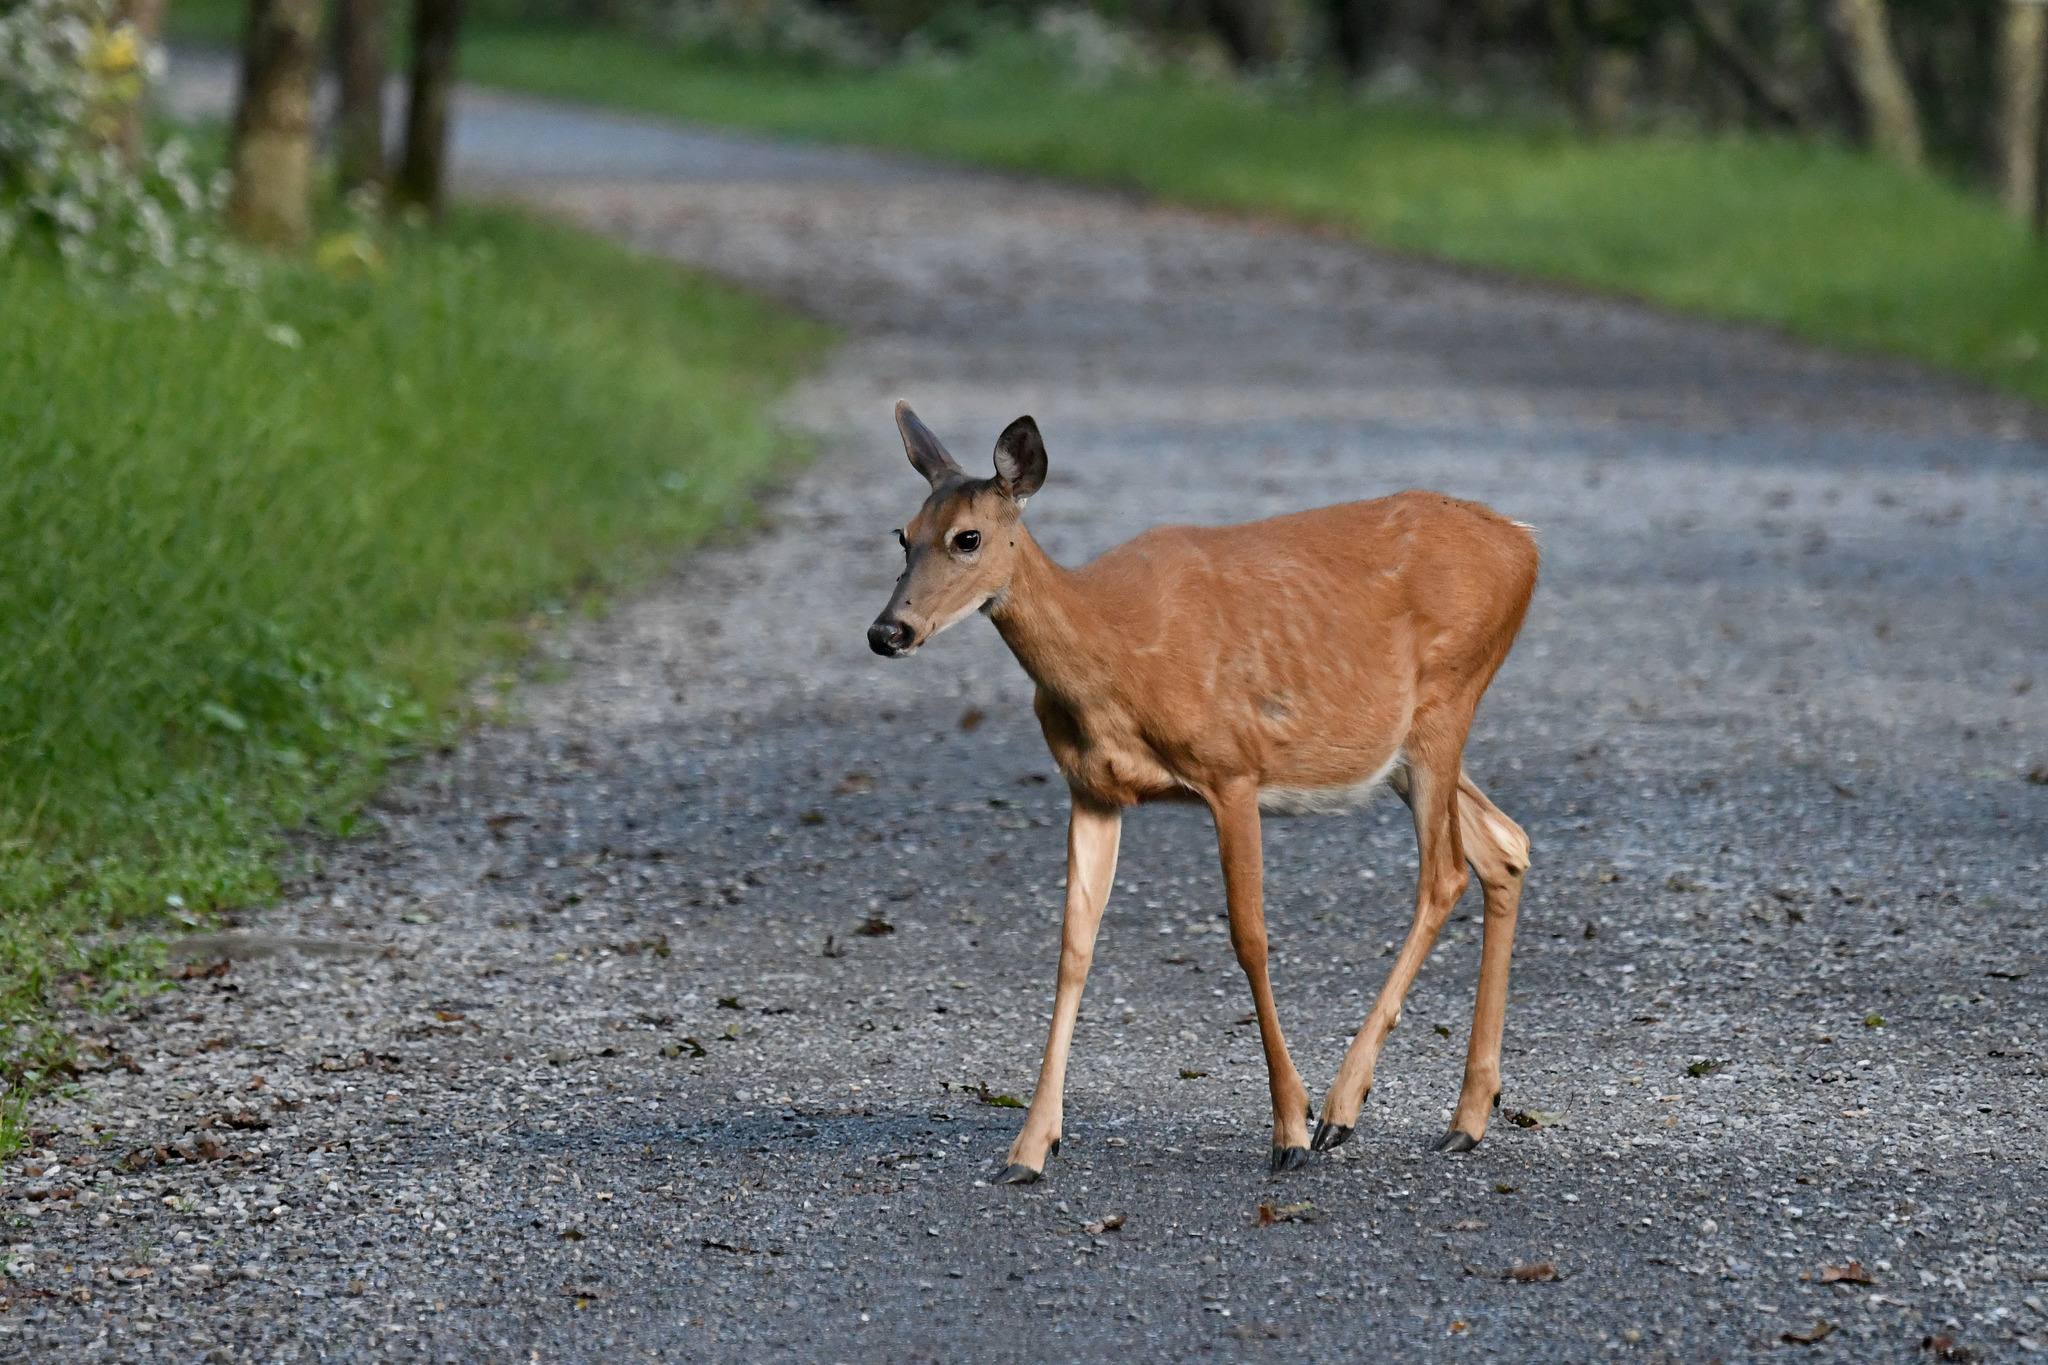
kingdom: Animalia
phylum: Chordata
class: Mammalia
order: Artiodactyla
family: Cervidae
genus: Odocoileus
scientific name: Odocoileus virginianus
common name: White-tailed deer
